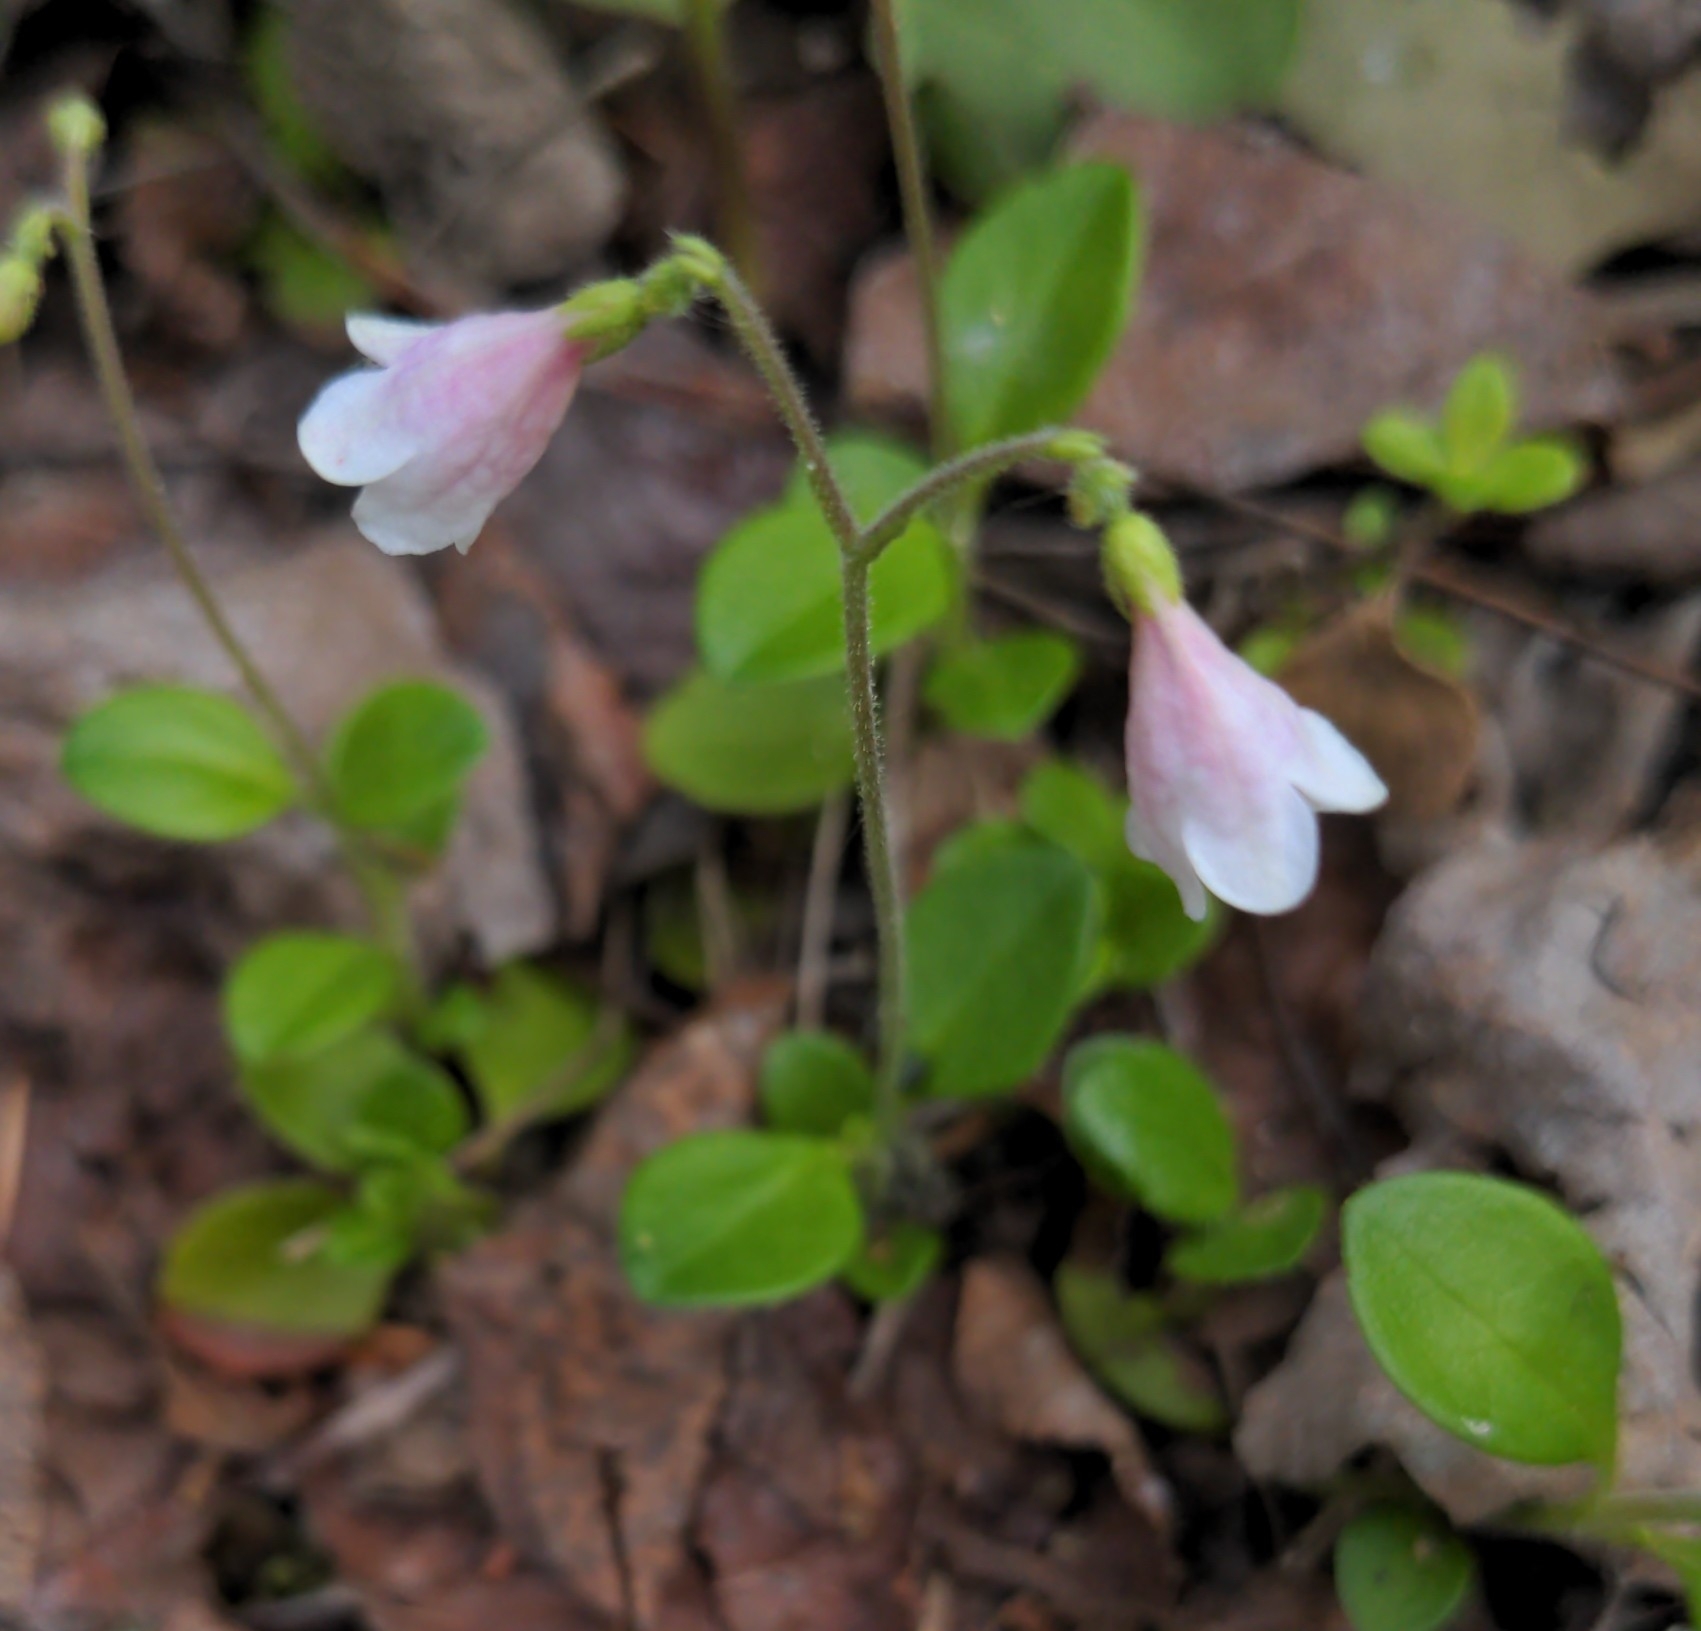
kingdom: Plantae
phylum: Tracheophyta
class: Magnoliopsida
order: Dipsacales
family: Caprifoliaceae
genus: Linnaea
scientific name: Linnaea borealis
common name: Twinflower
